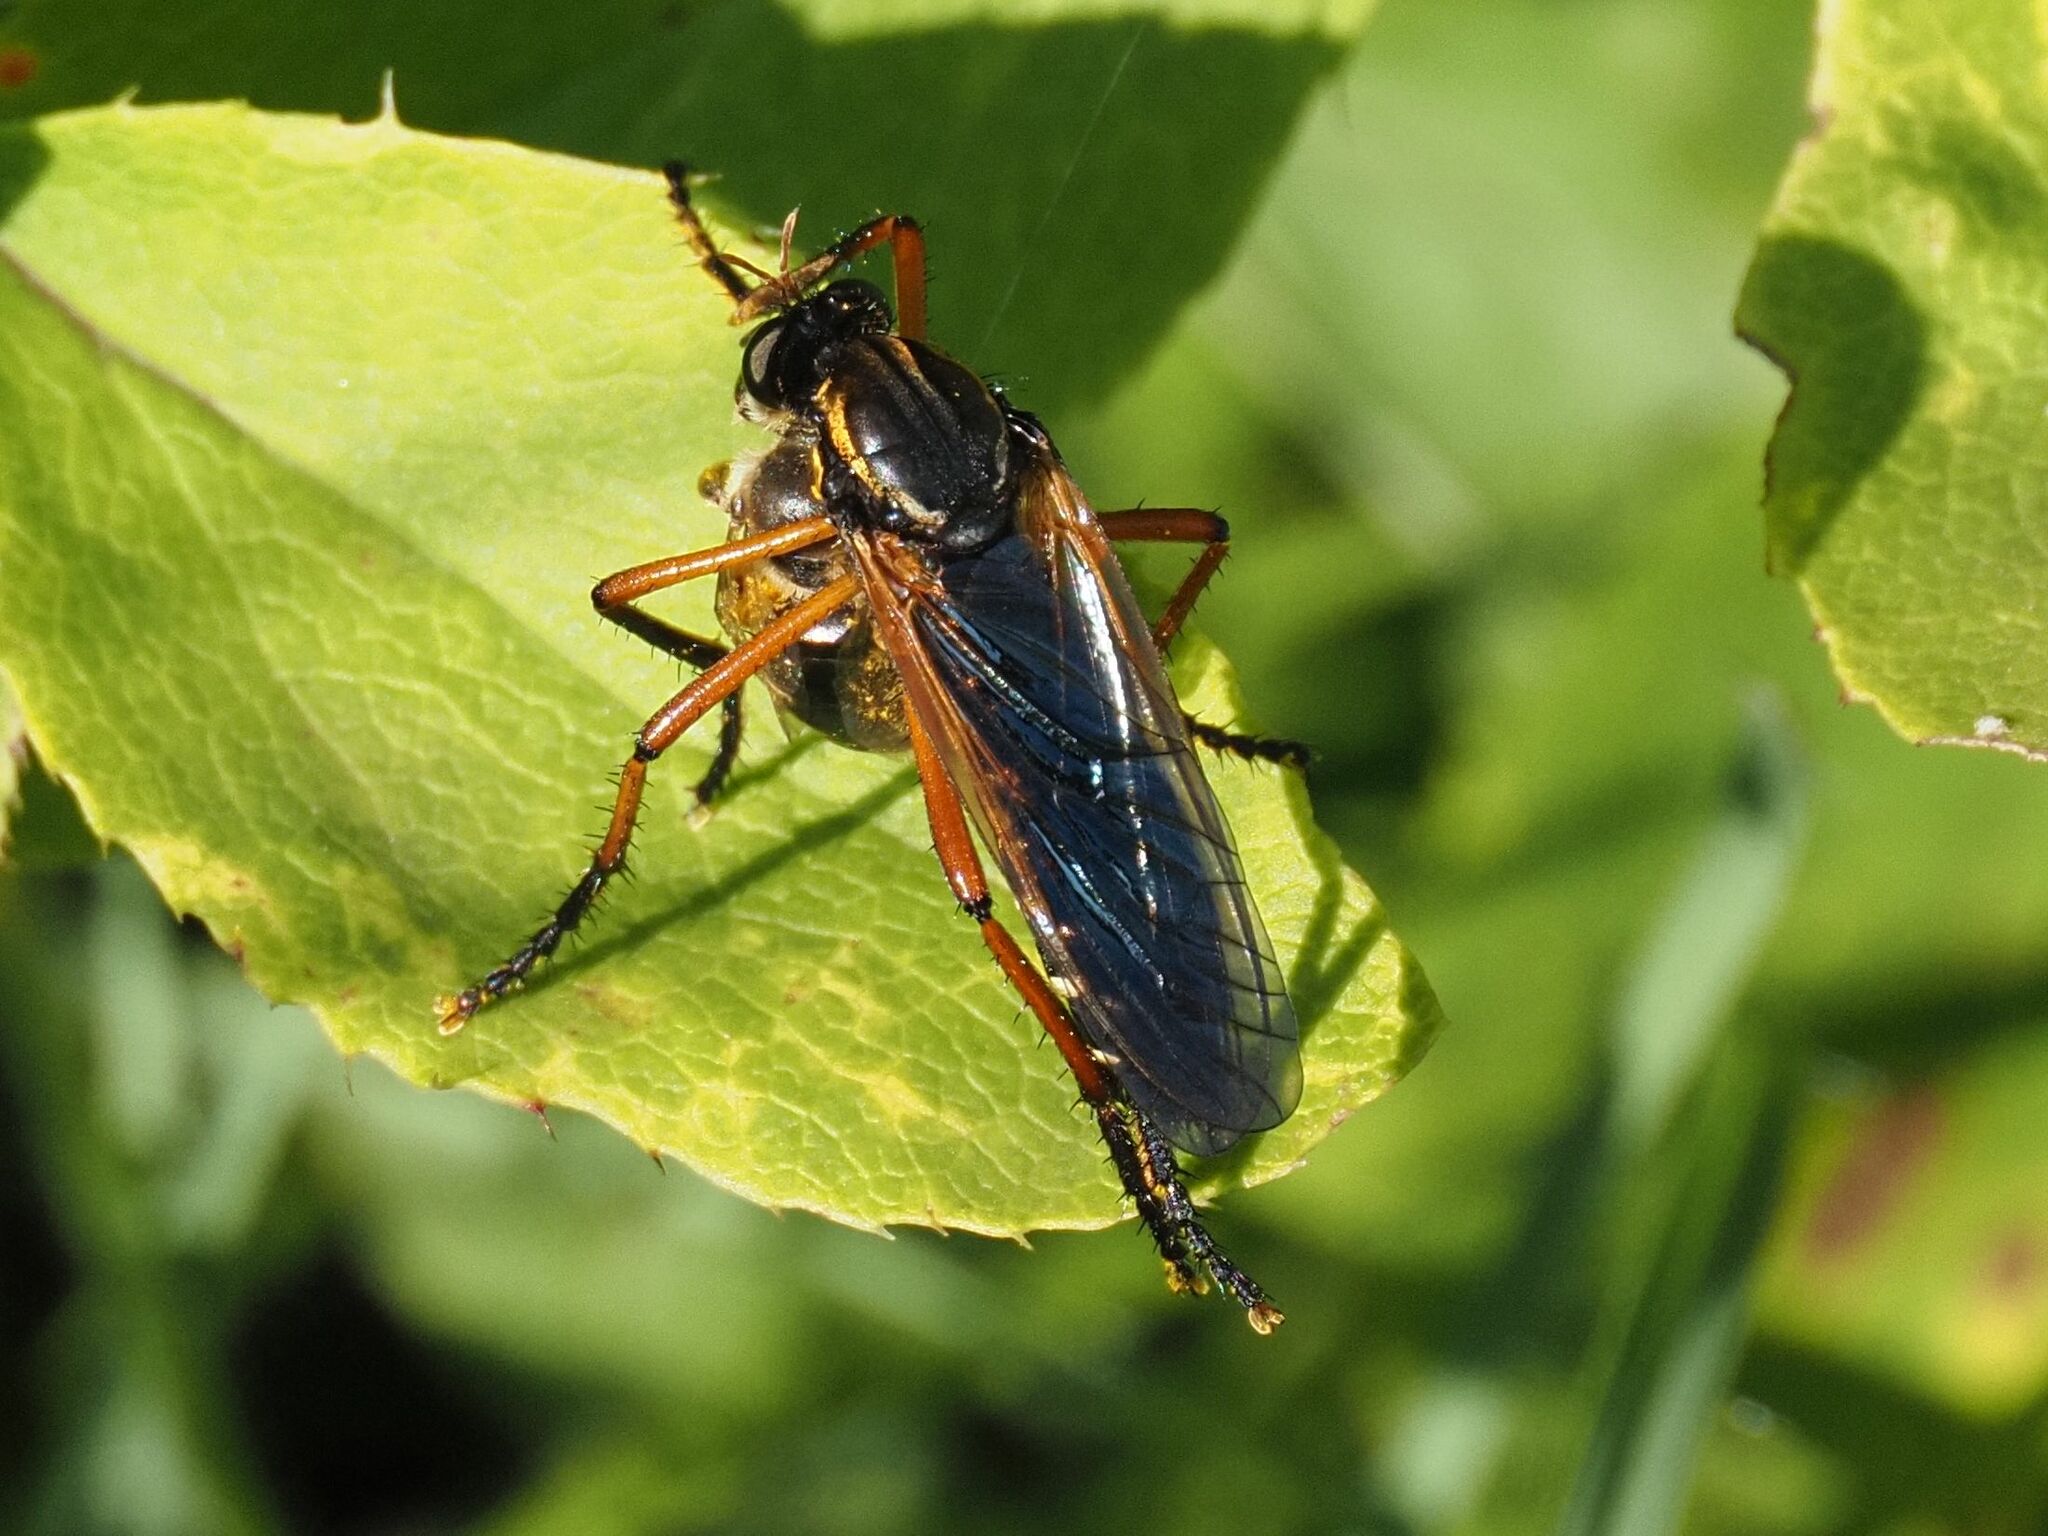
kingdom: Animalia
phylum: Arthropoda
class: Insecta
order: Diptera
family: Asilidae
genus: Molobratia
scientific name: Molobratia teutona
